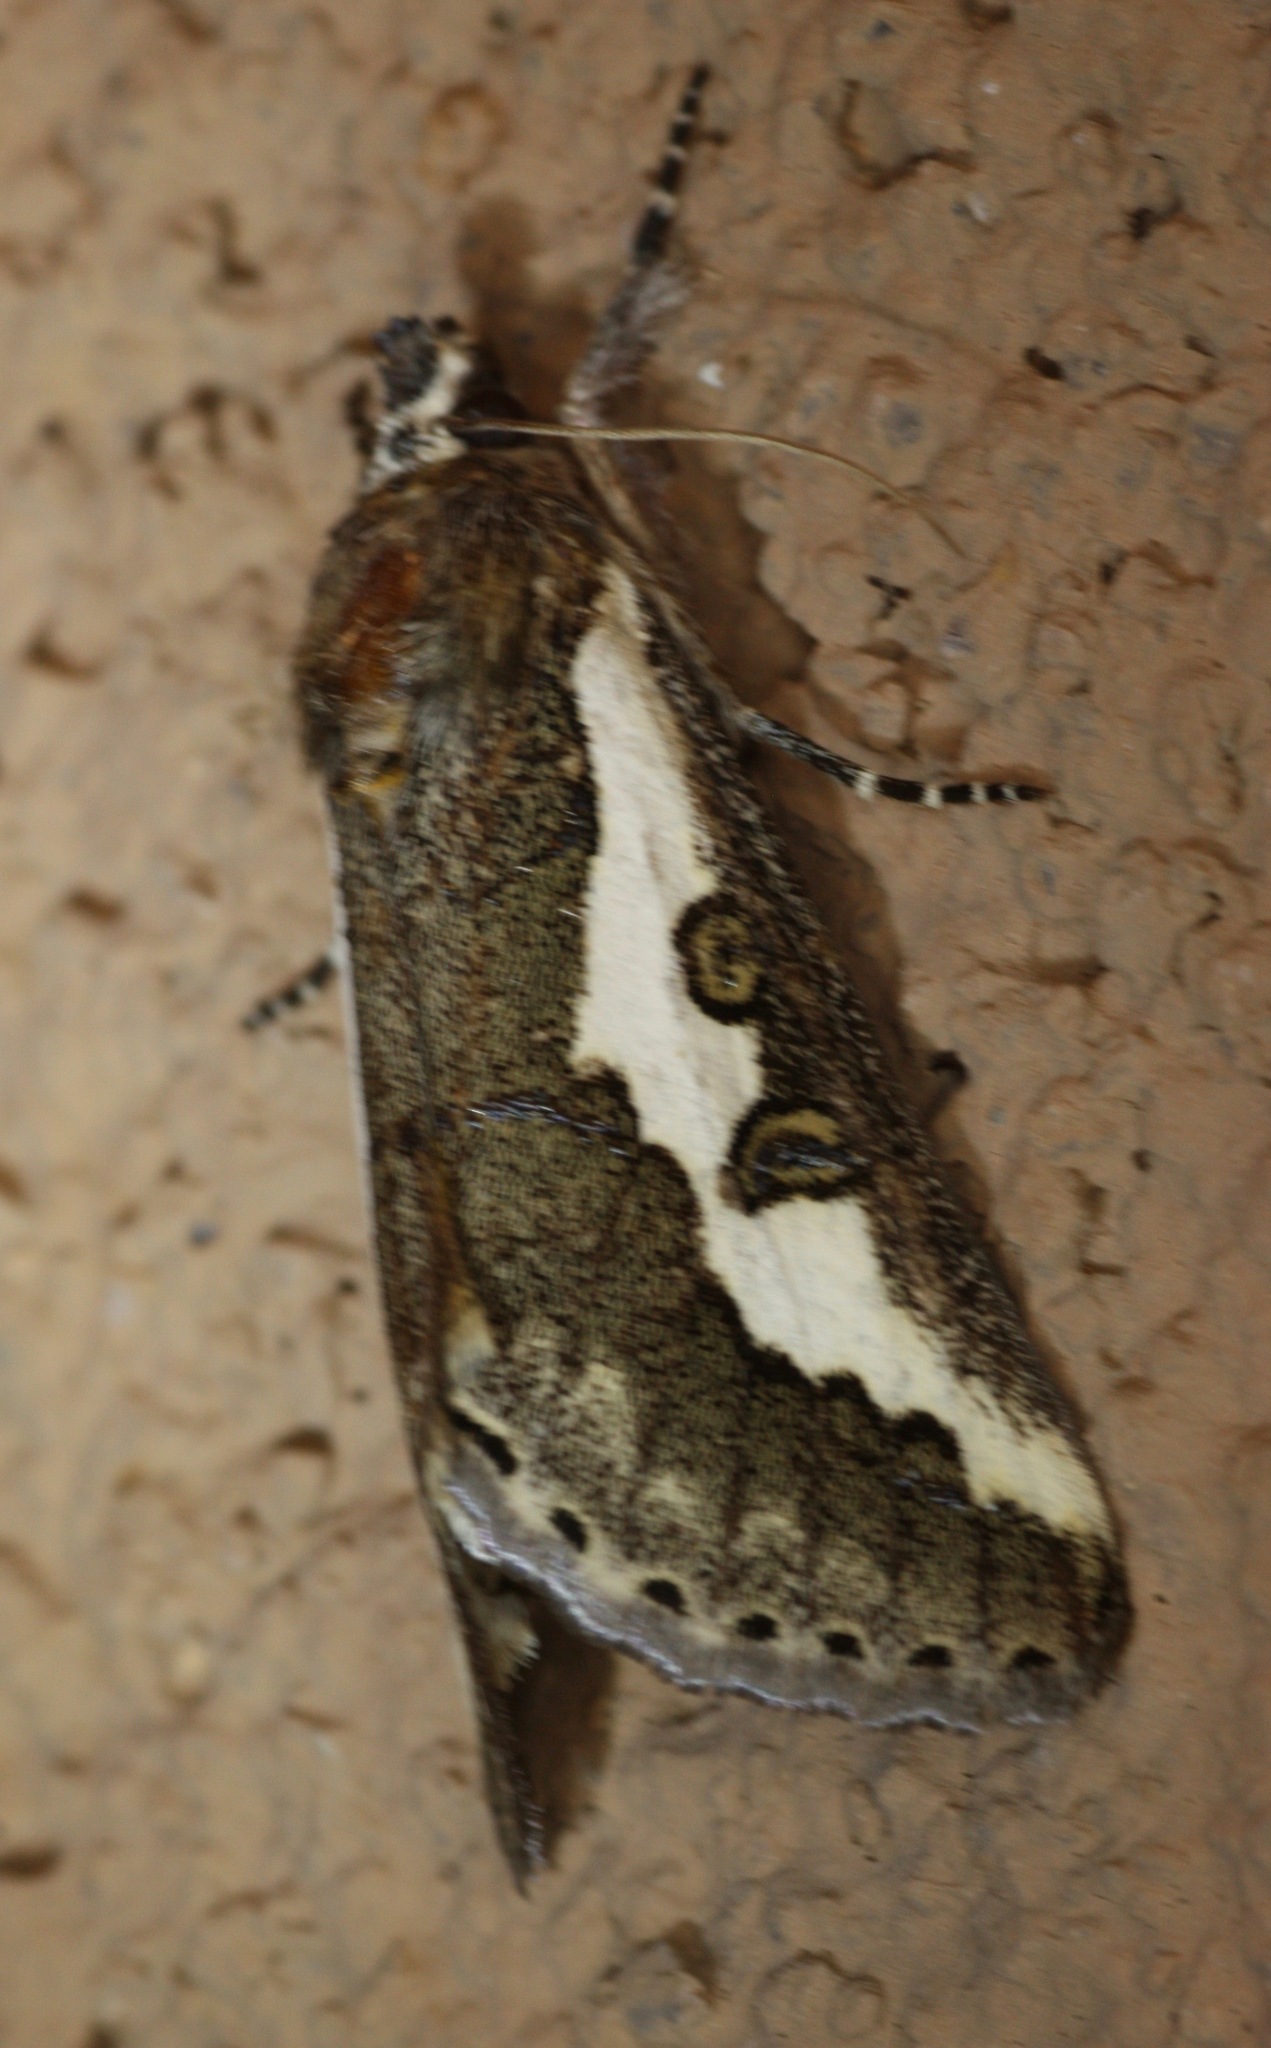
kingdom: Animalia
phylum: Arthropoda
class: Insecta
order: Lepidoptera
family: Noctuidae
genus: Euscirrhopterus
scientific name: Euscirrhopterus gloveri
